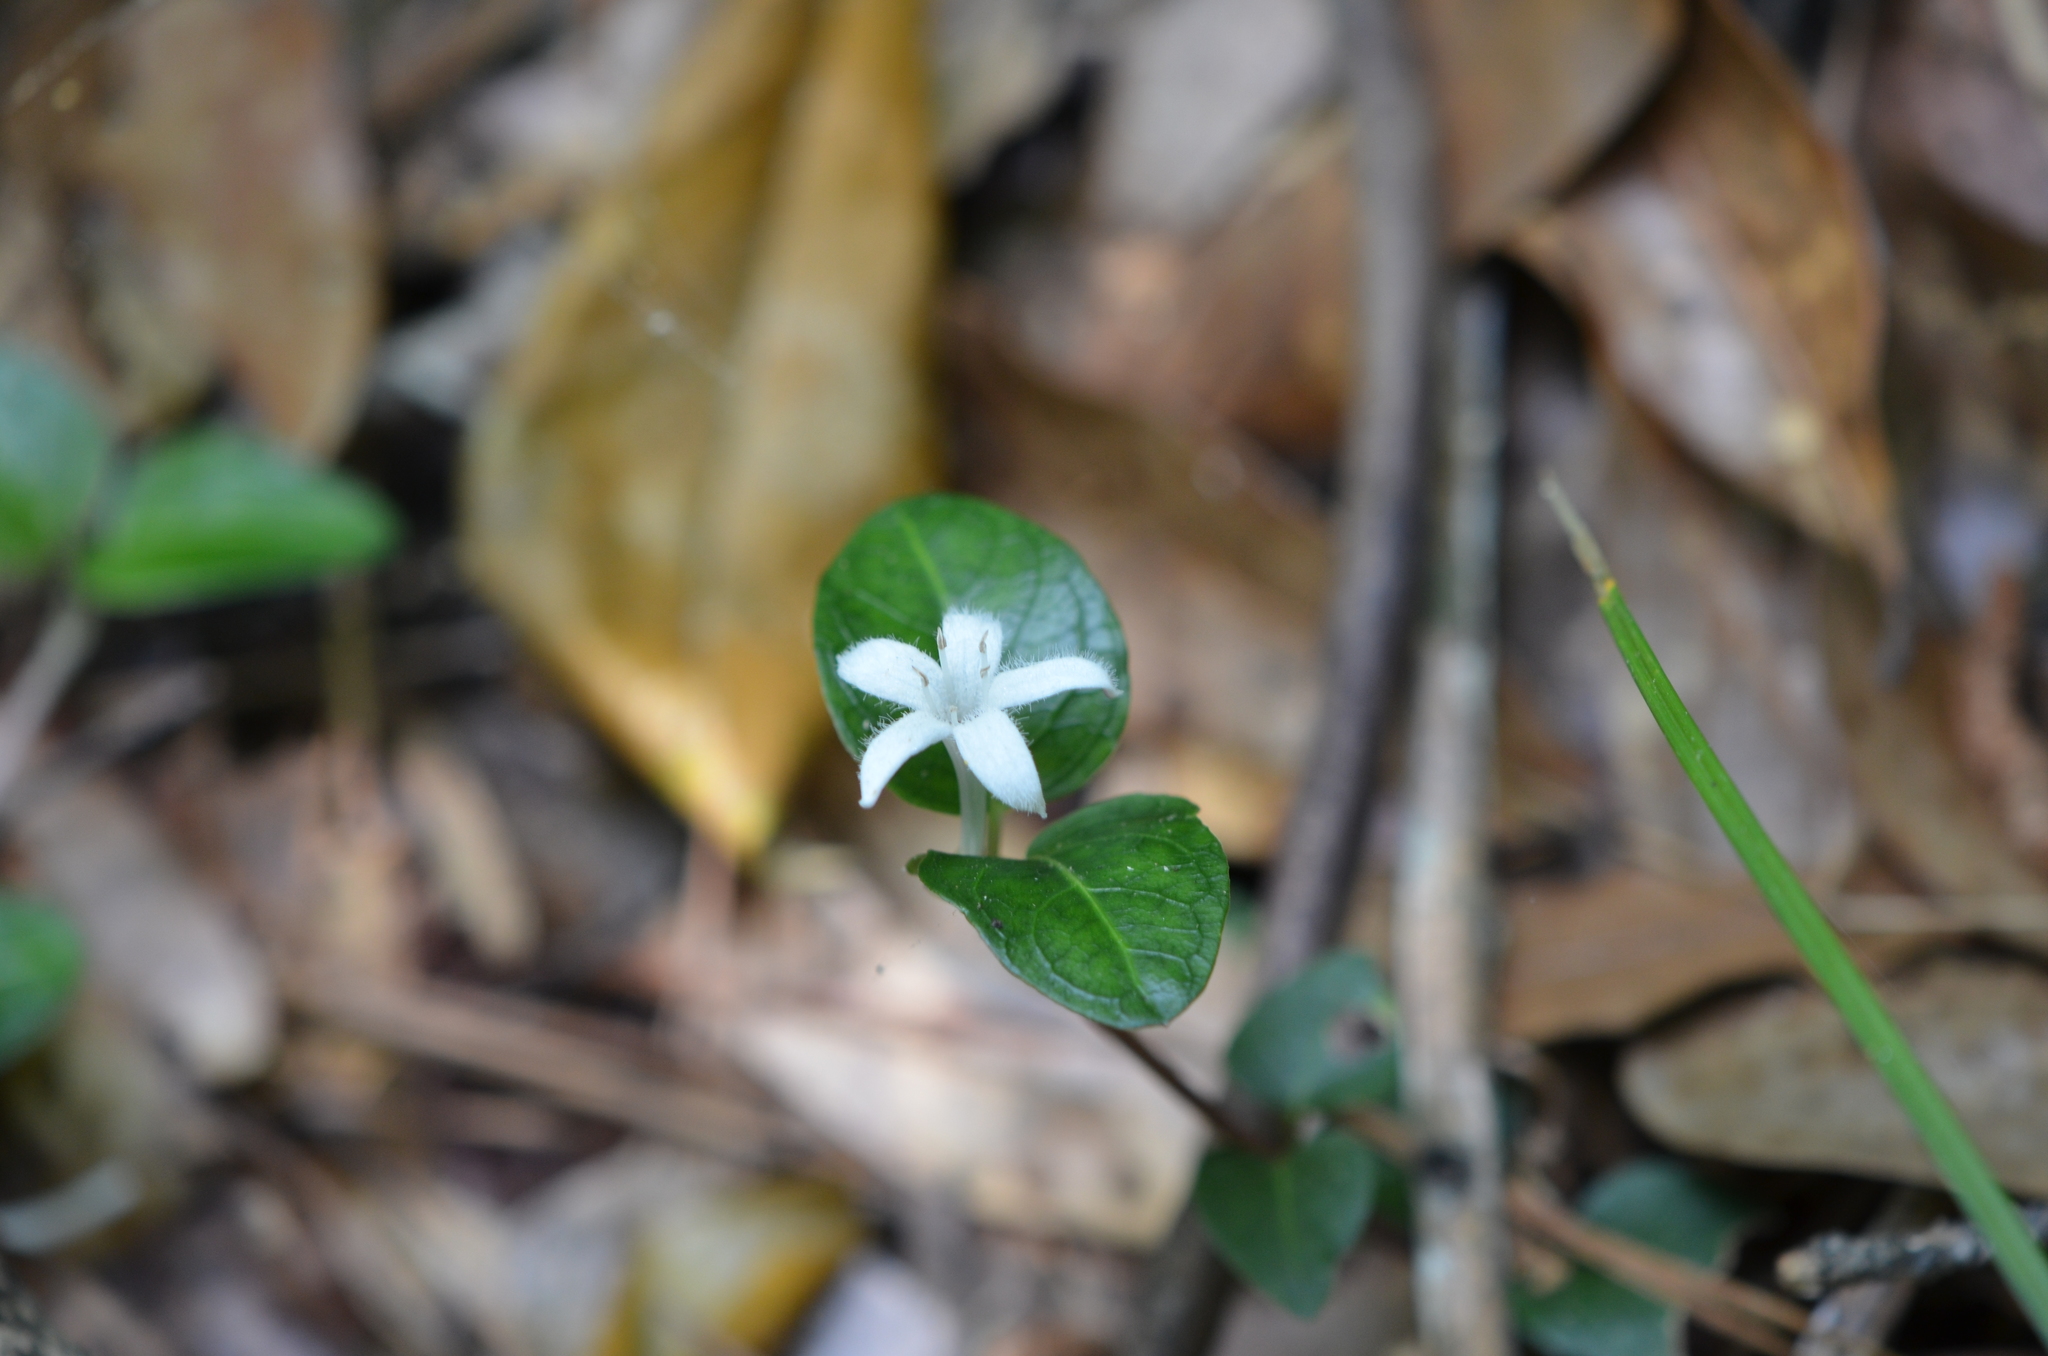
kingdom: Plantae
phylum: Tracheophyta
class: Magnoliopsida
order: Gentianales
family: Rubiaceae
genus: Mitchella
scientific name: Mitchella repens
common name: Partridge-berry
